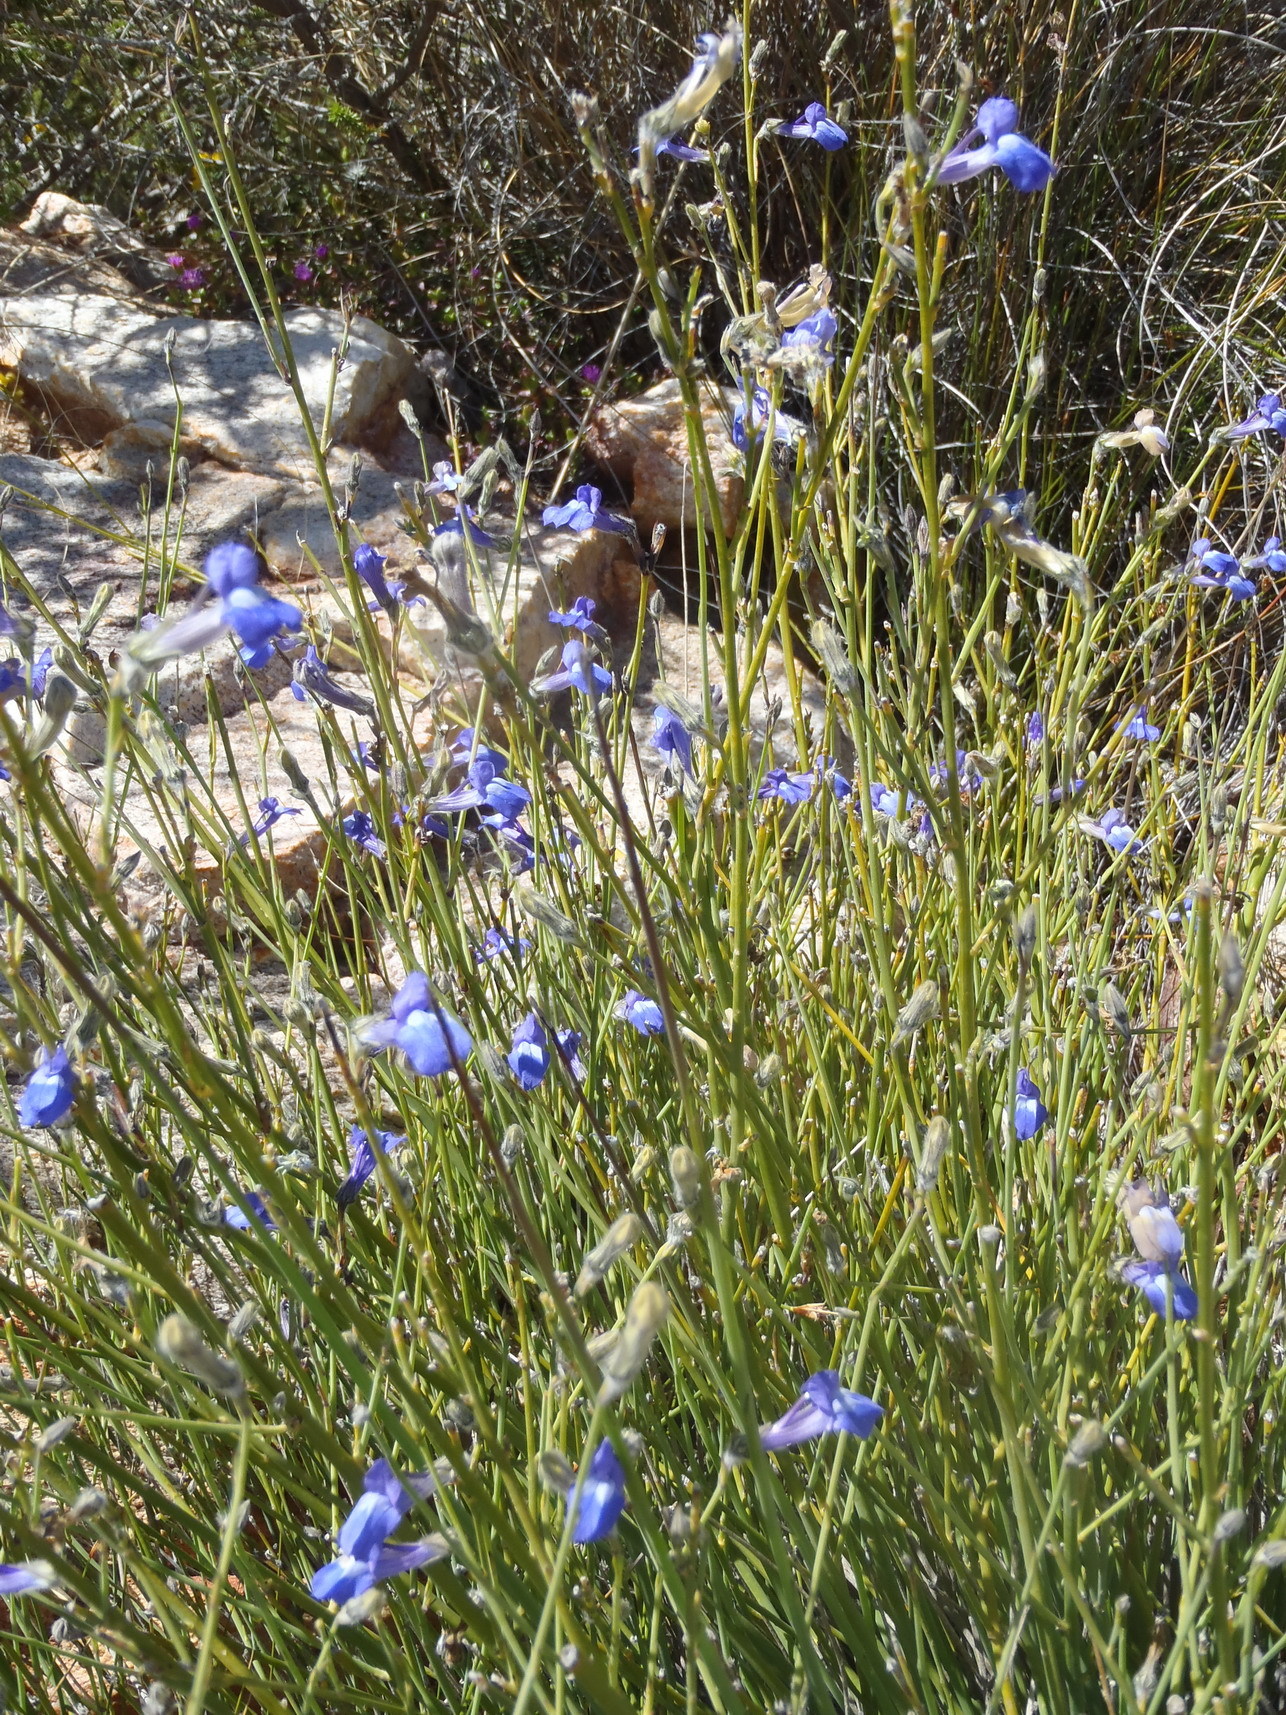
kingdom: Plantae
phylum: Tracheophyta
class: Magnoliopsida
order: Asterales
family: Campanulaceae
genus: Lobelia
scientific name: Lobelia linearis
